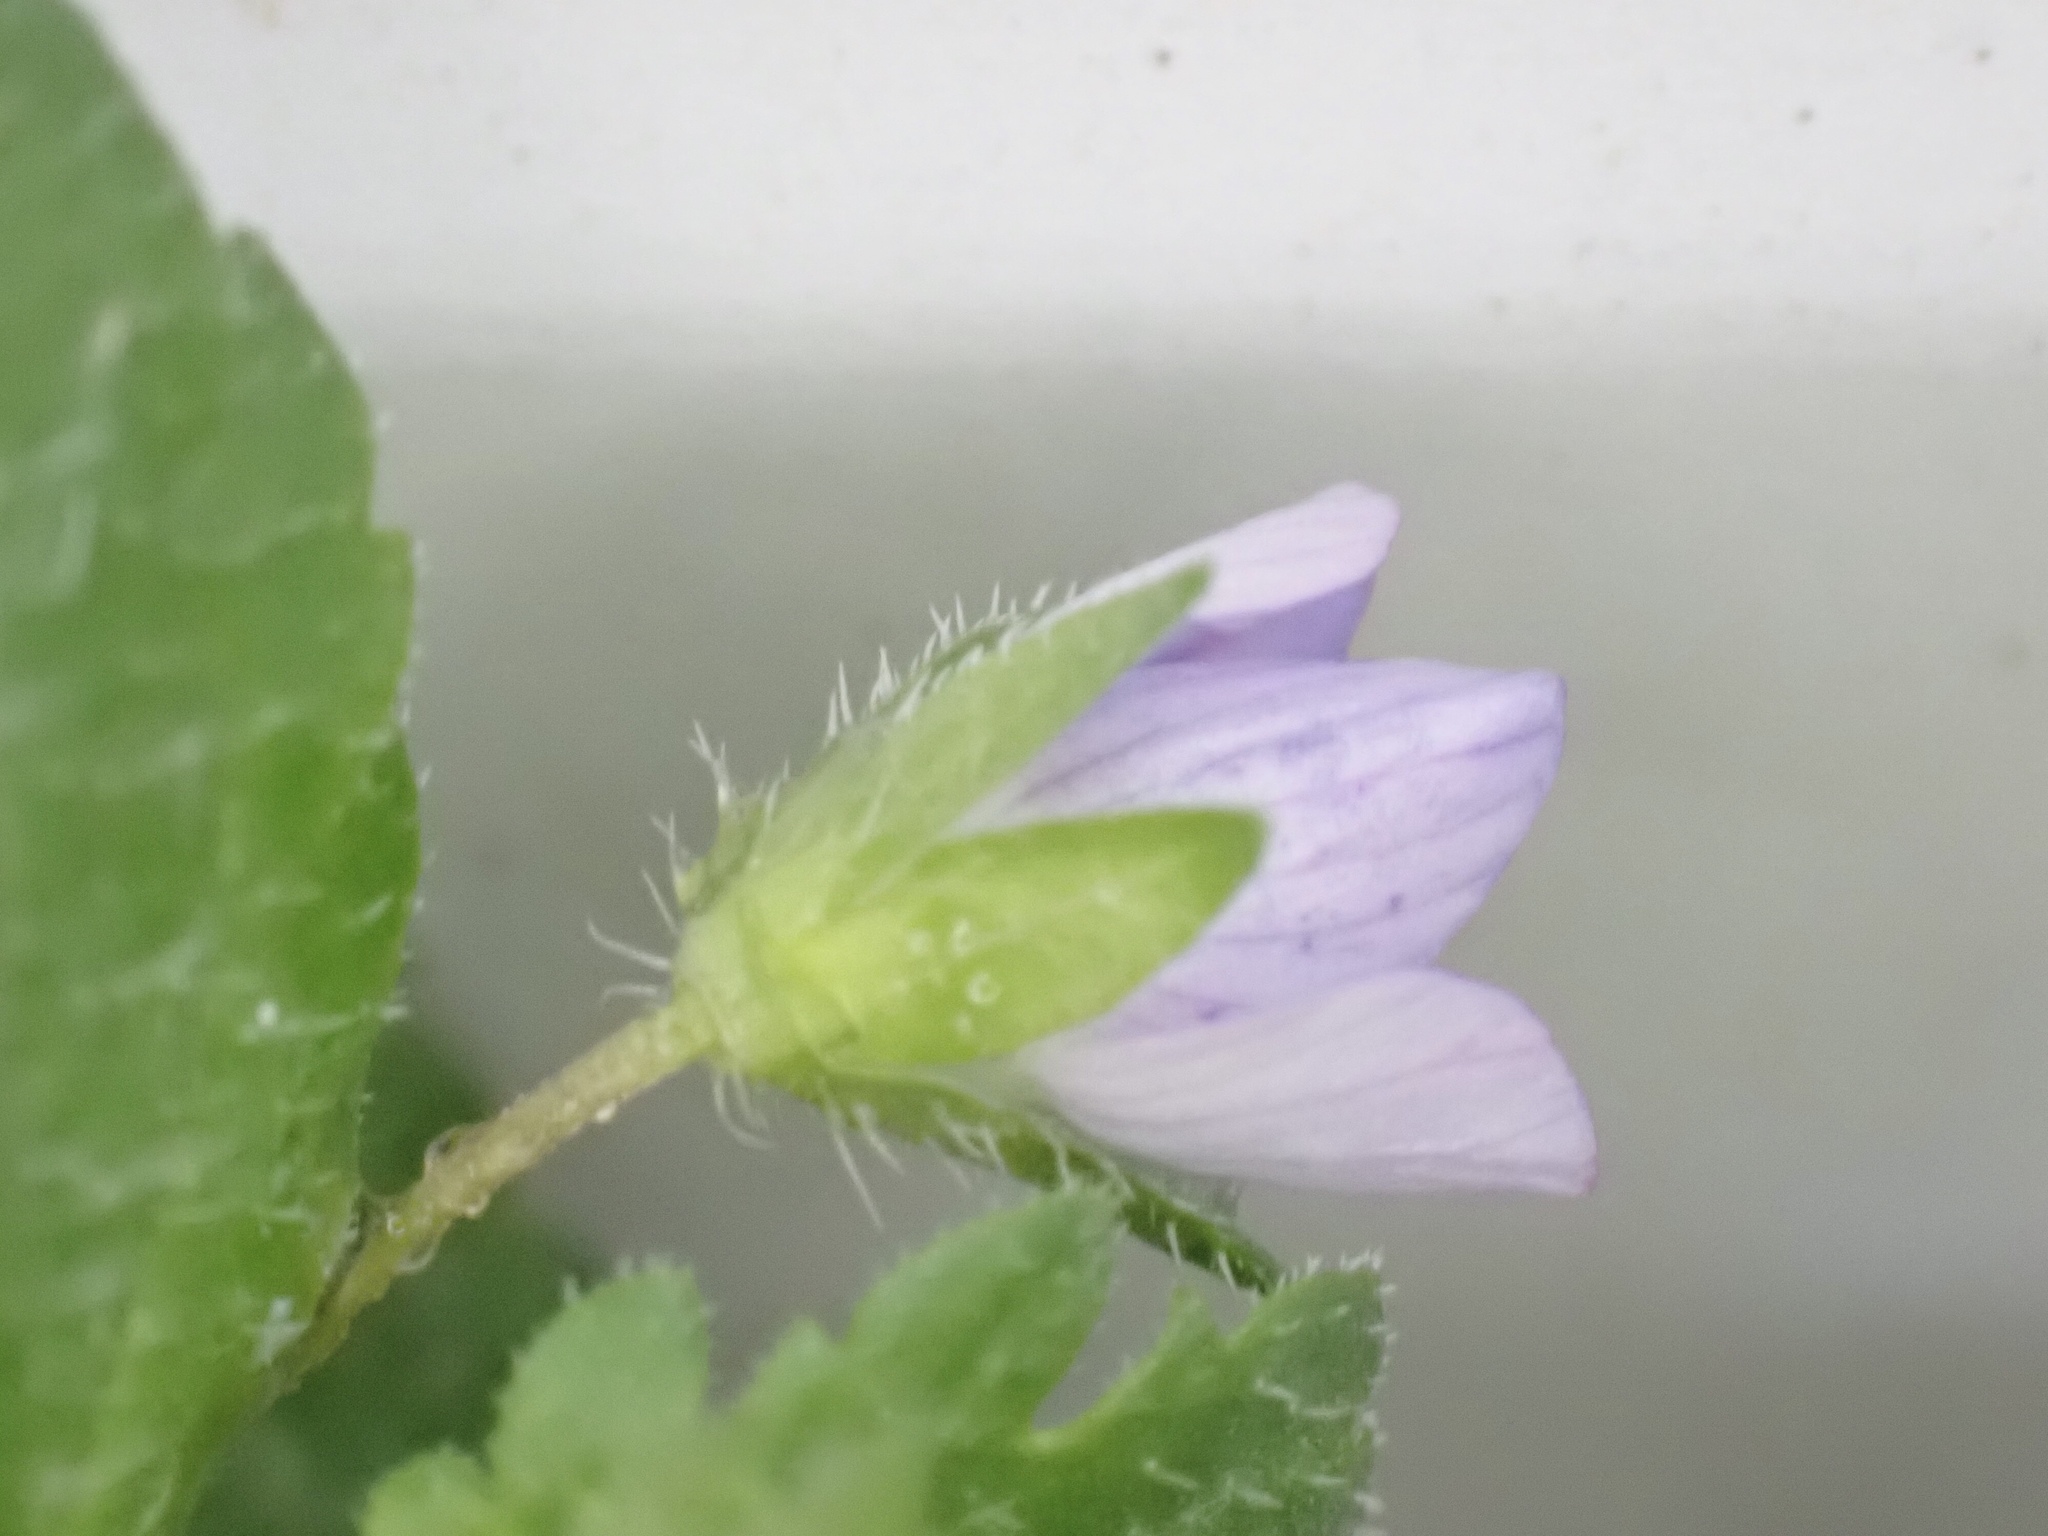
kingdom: Plantae
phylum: Tracheophyta
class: Magnoliopsida
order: Lamiales
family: Plantaginaceae
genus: Veronica
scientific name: Veronica persica
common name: Common field-speedwell
